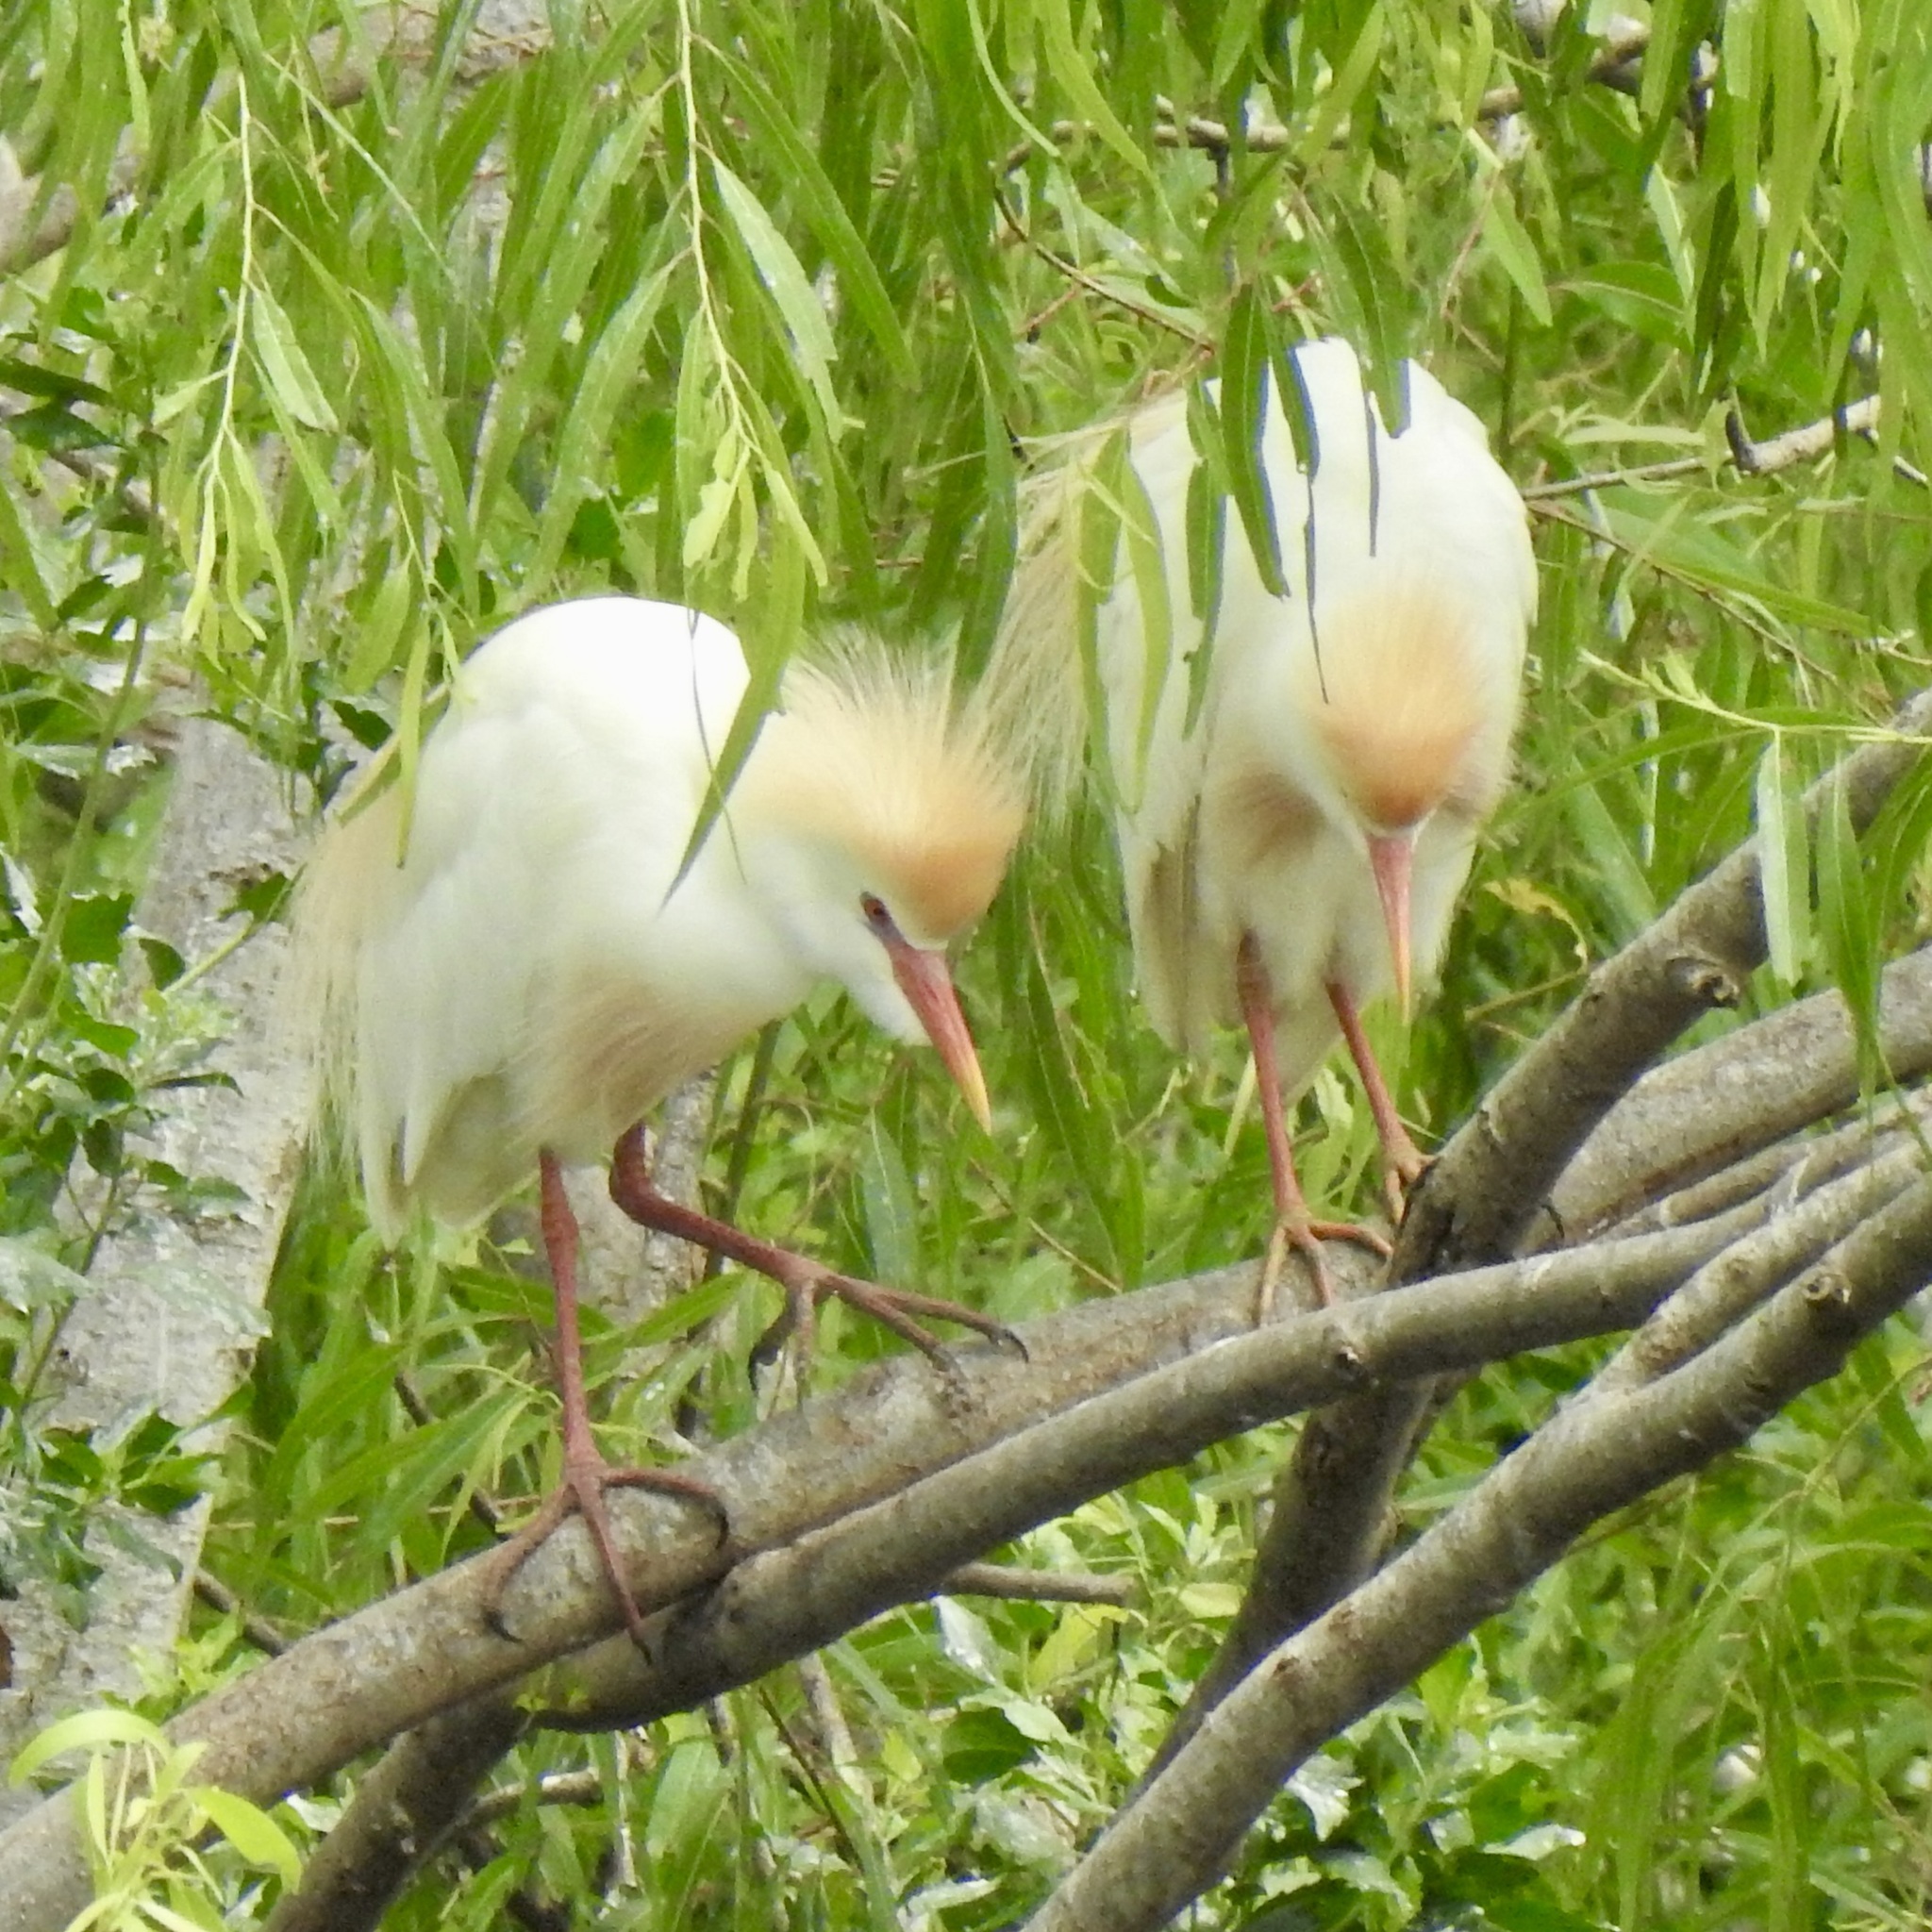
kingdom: Animalia
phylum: Chordata
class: Aves
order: Pelecaniformes
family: Ardeidae
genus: Bubulcus
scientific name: Bubulcus ibis
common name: Cattle egret
